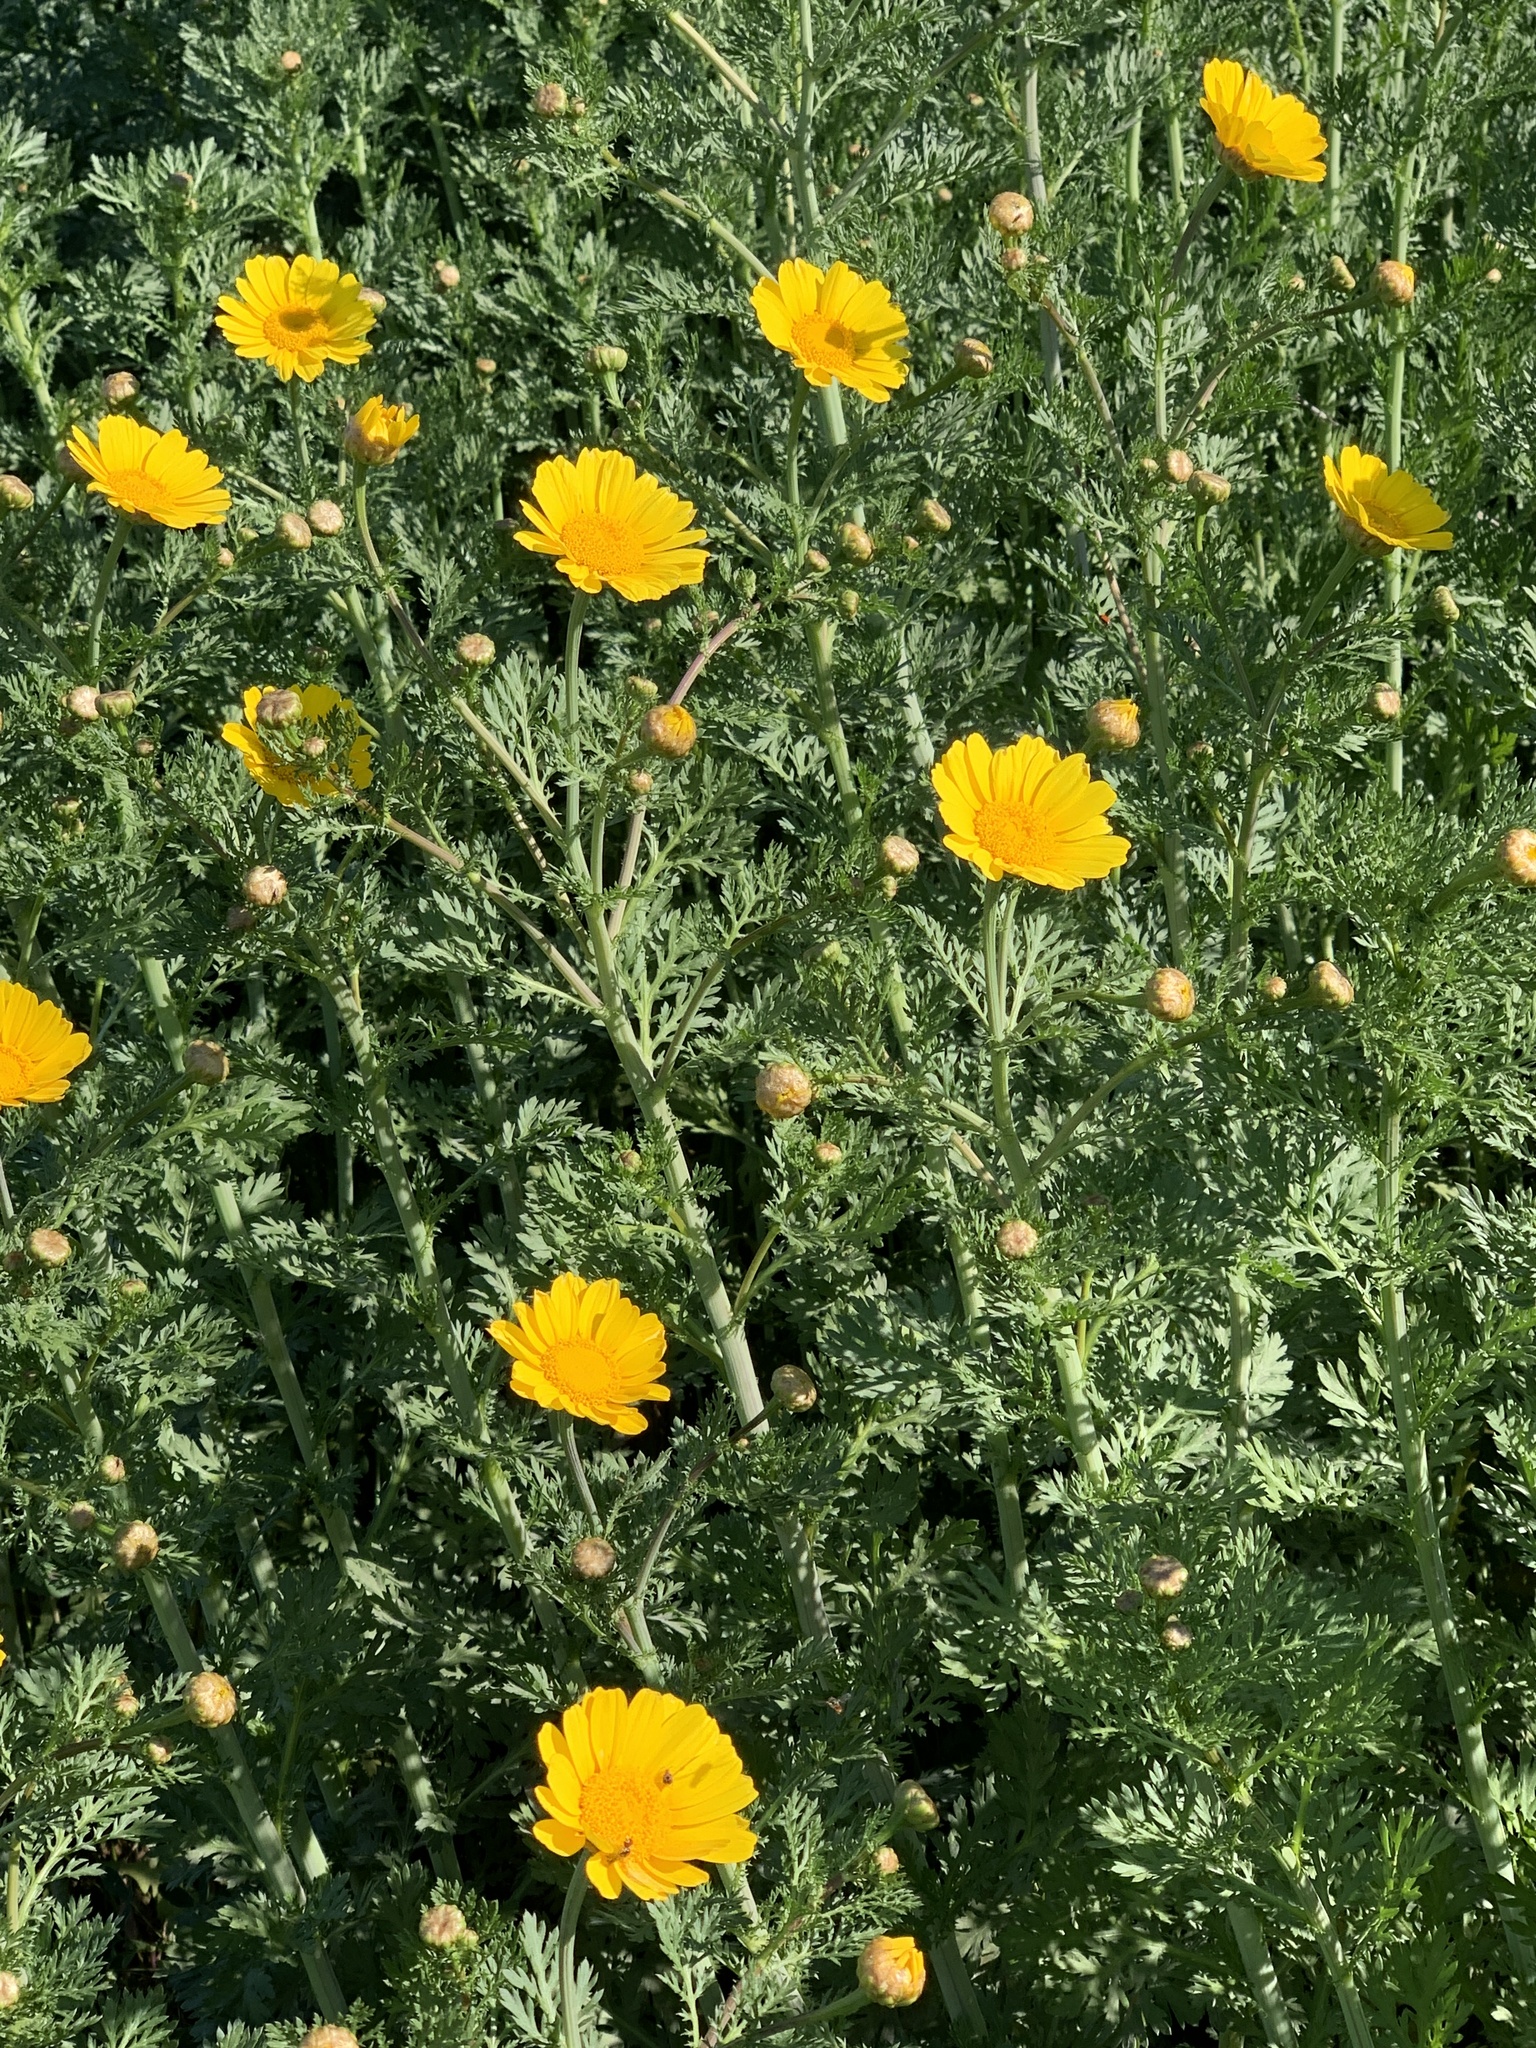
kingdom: Plantae
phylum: Tracheophyta
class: Magnoliopsida
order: Asterales
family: Asteraceae
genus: Glebionis
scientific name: Glebionis coronaria
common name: Crowndaisy
